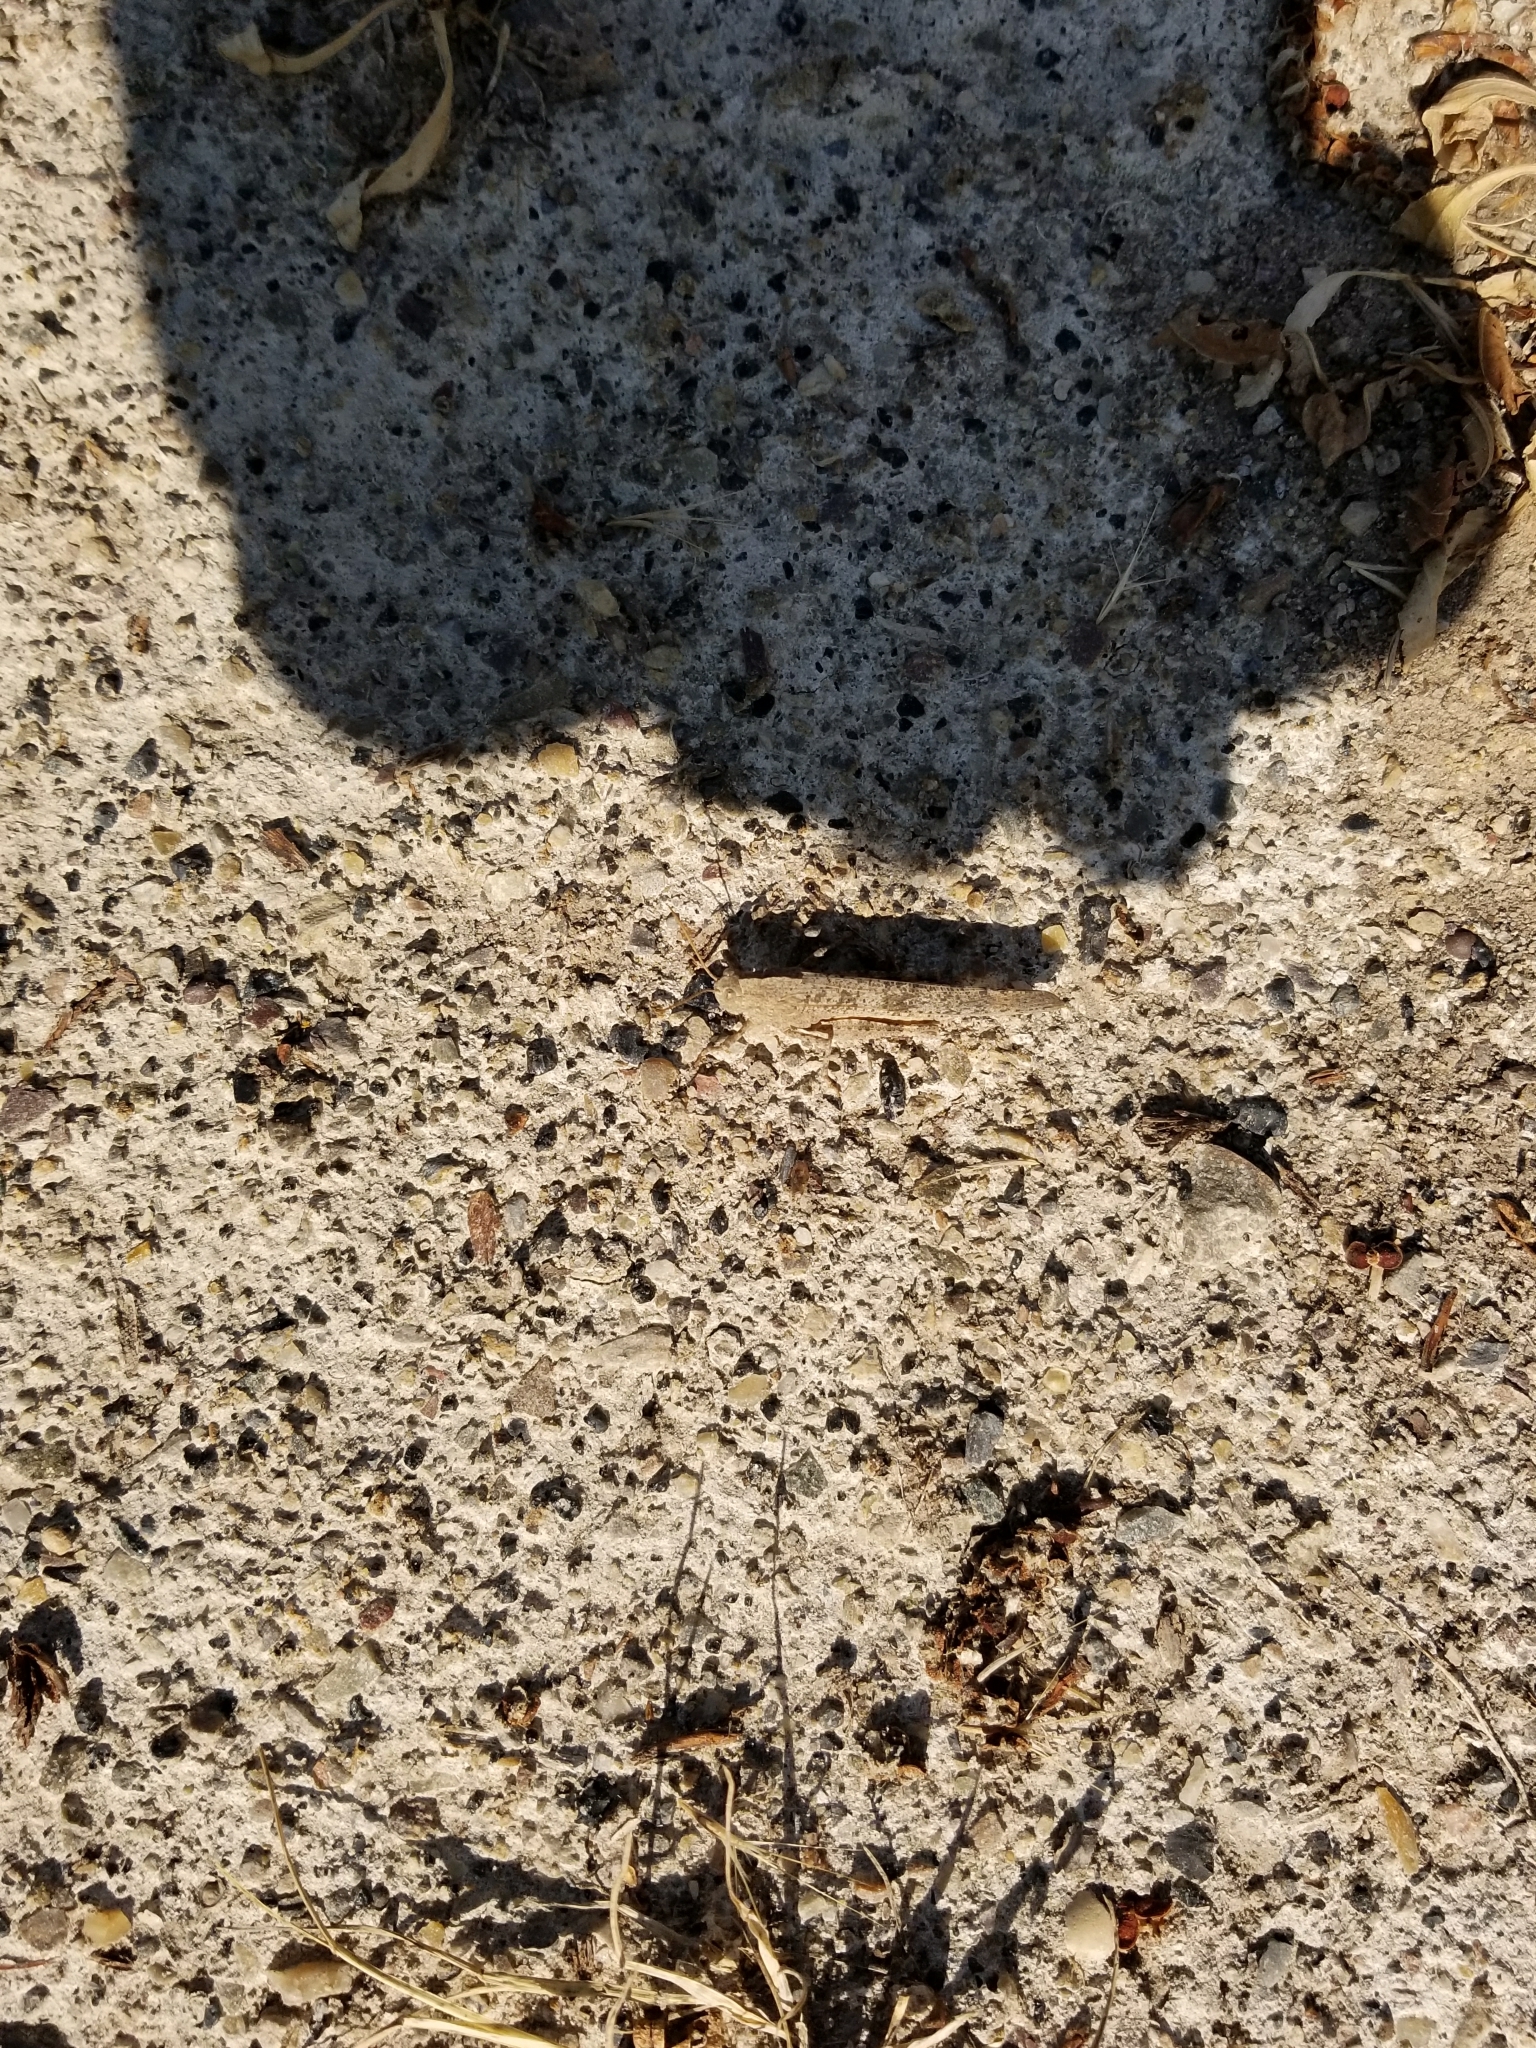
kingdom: Animalia
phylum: Arthropoda
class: Insecta
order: Orthoptera
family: Acrididae
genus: Dissosteira
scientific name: Dissosteira carolina
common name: Carolina grasshopper
